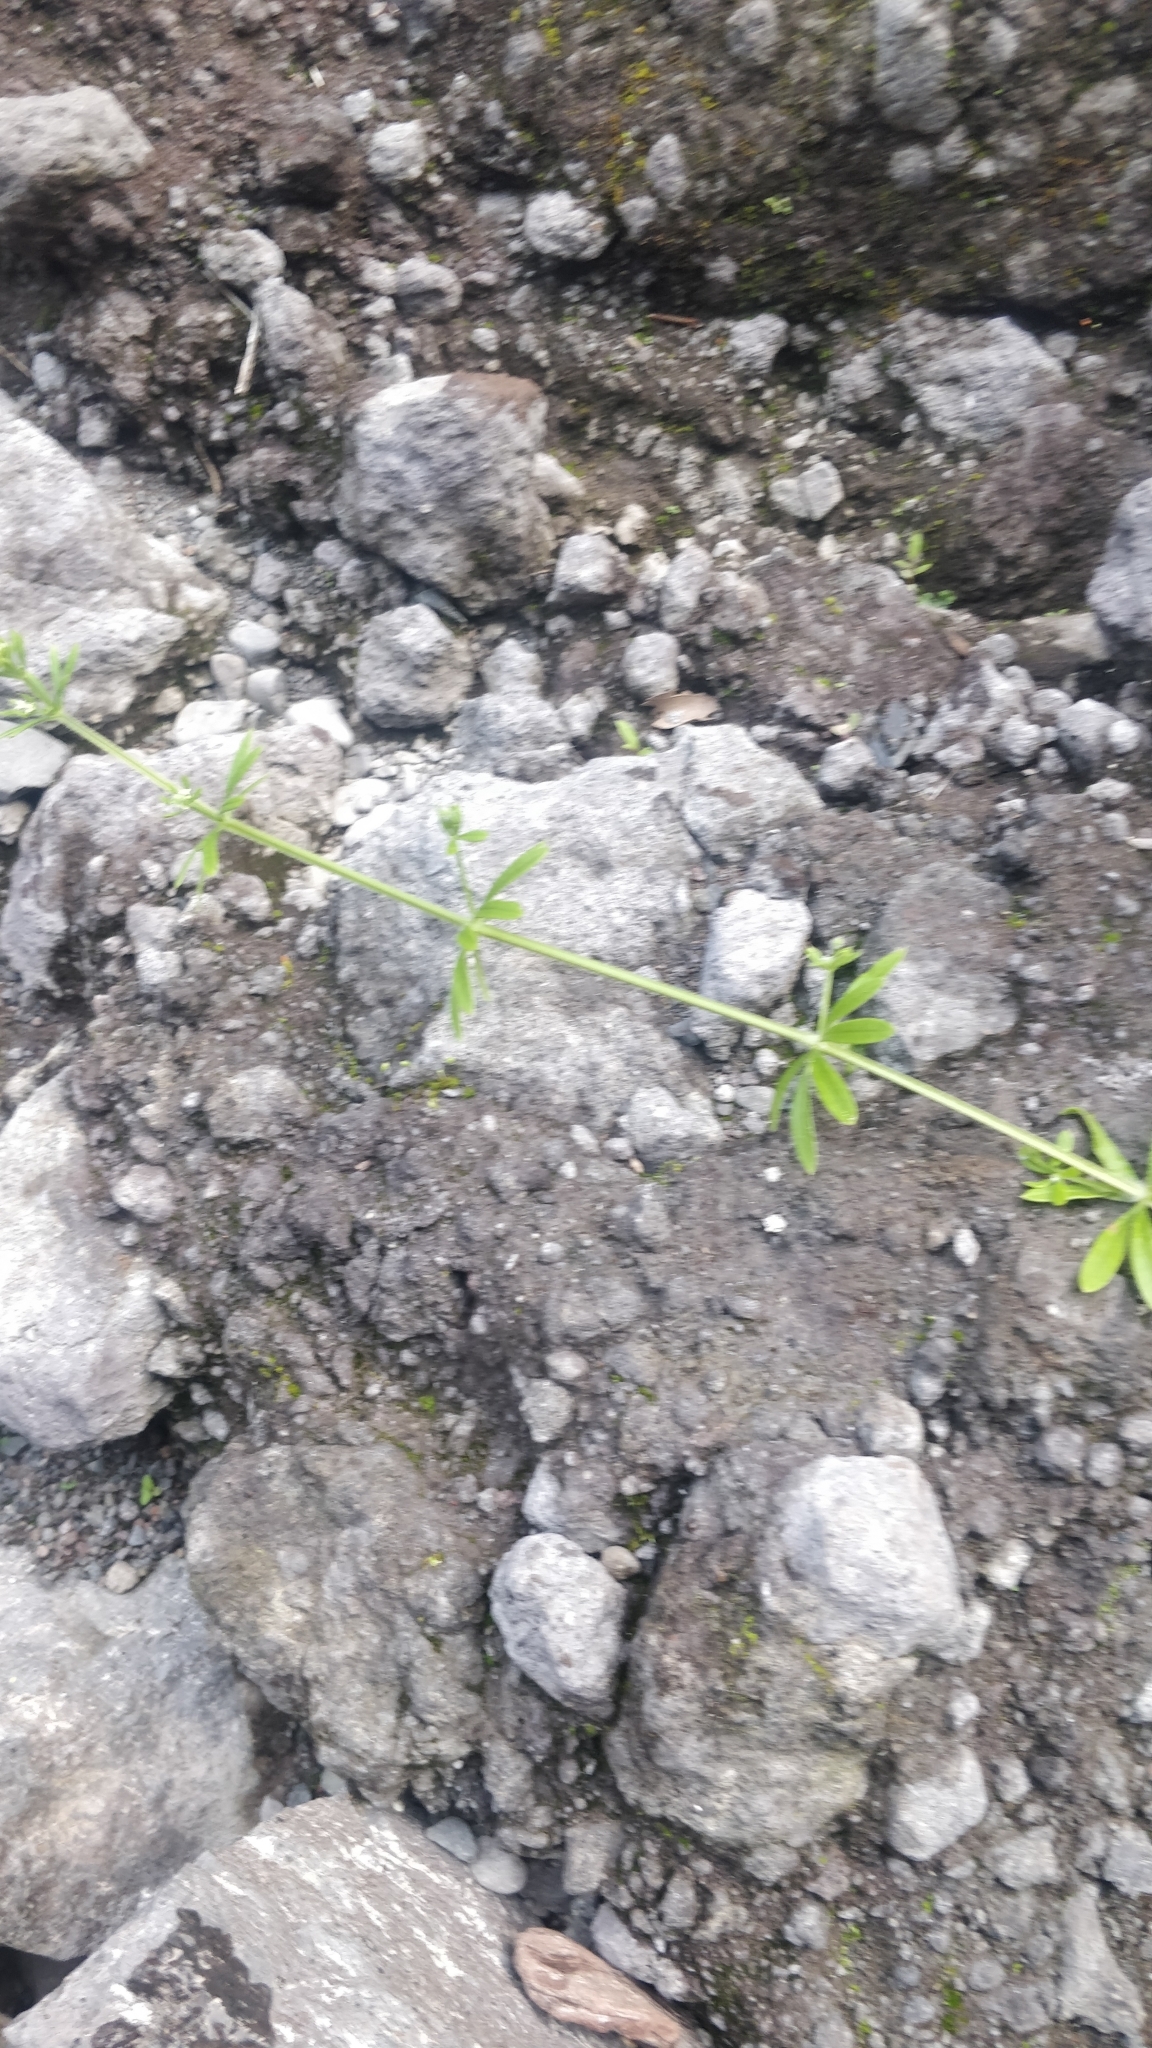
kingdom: Plantae
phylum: Tracheophyta
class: Magnoliopsida
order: Gentianales
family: Rubiaceae
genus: Galium
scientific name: Galium aparine
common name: Cleavers
